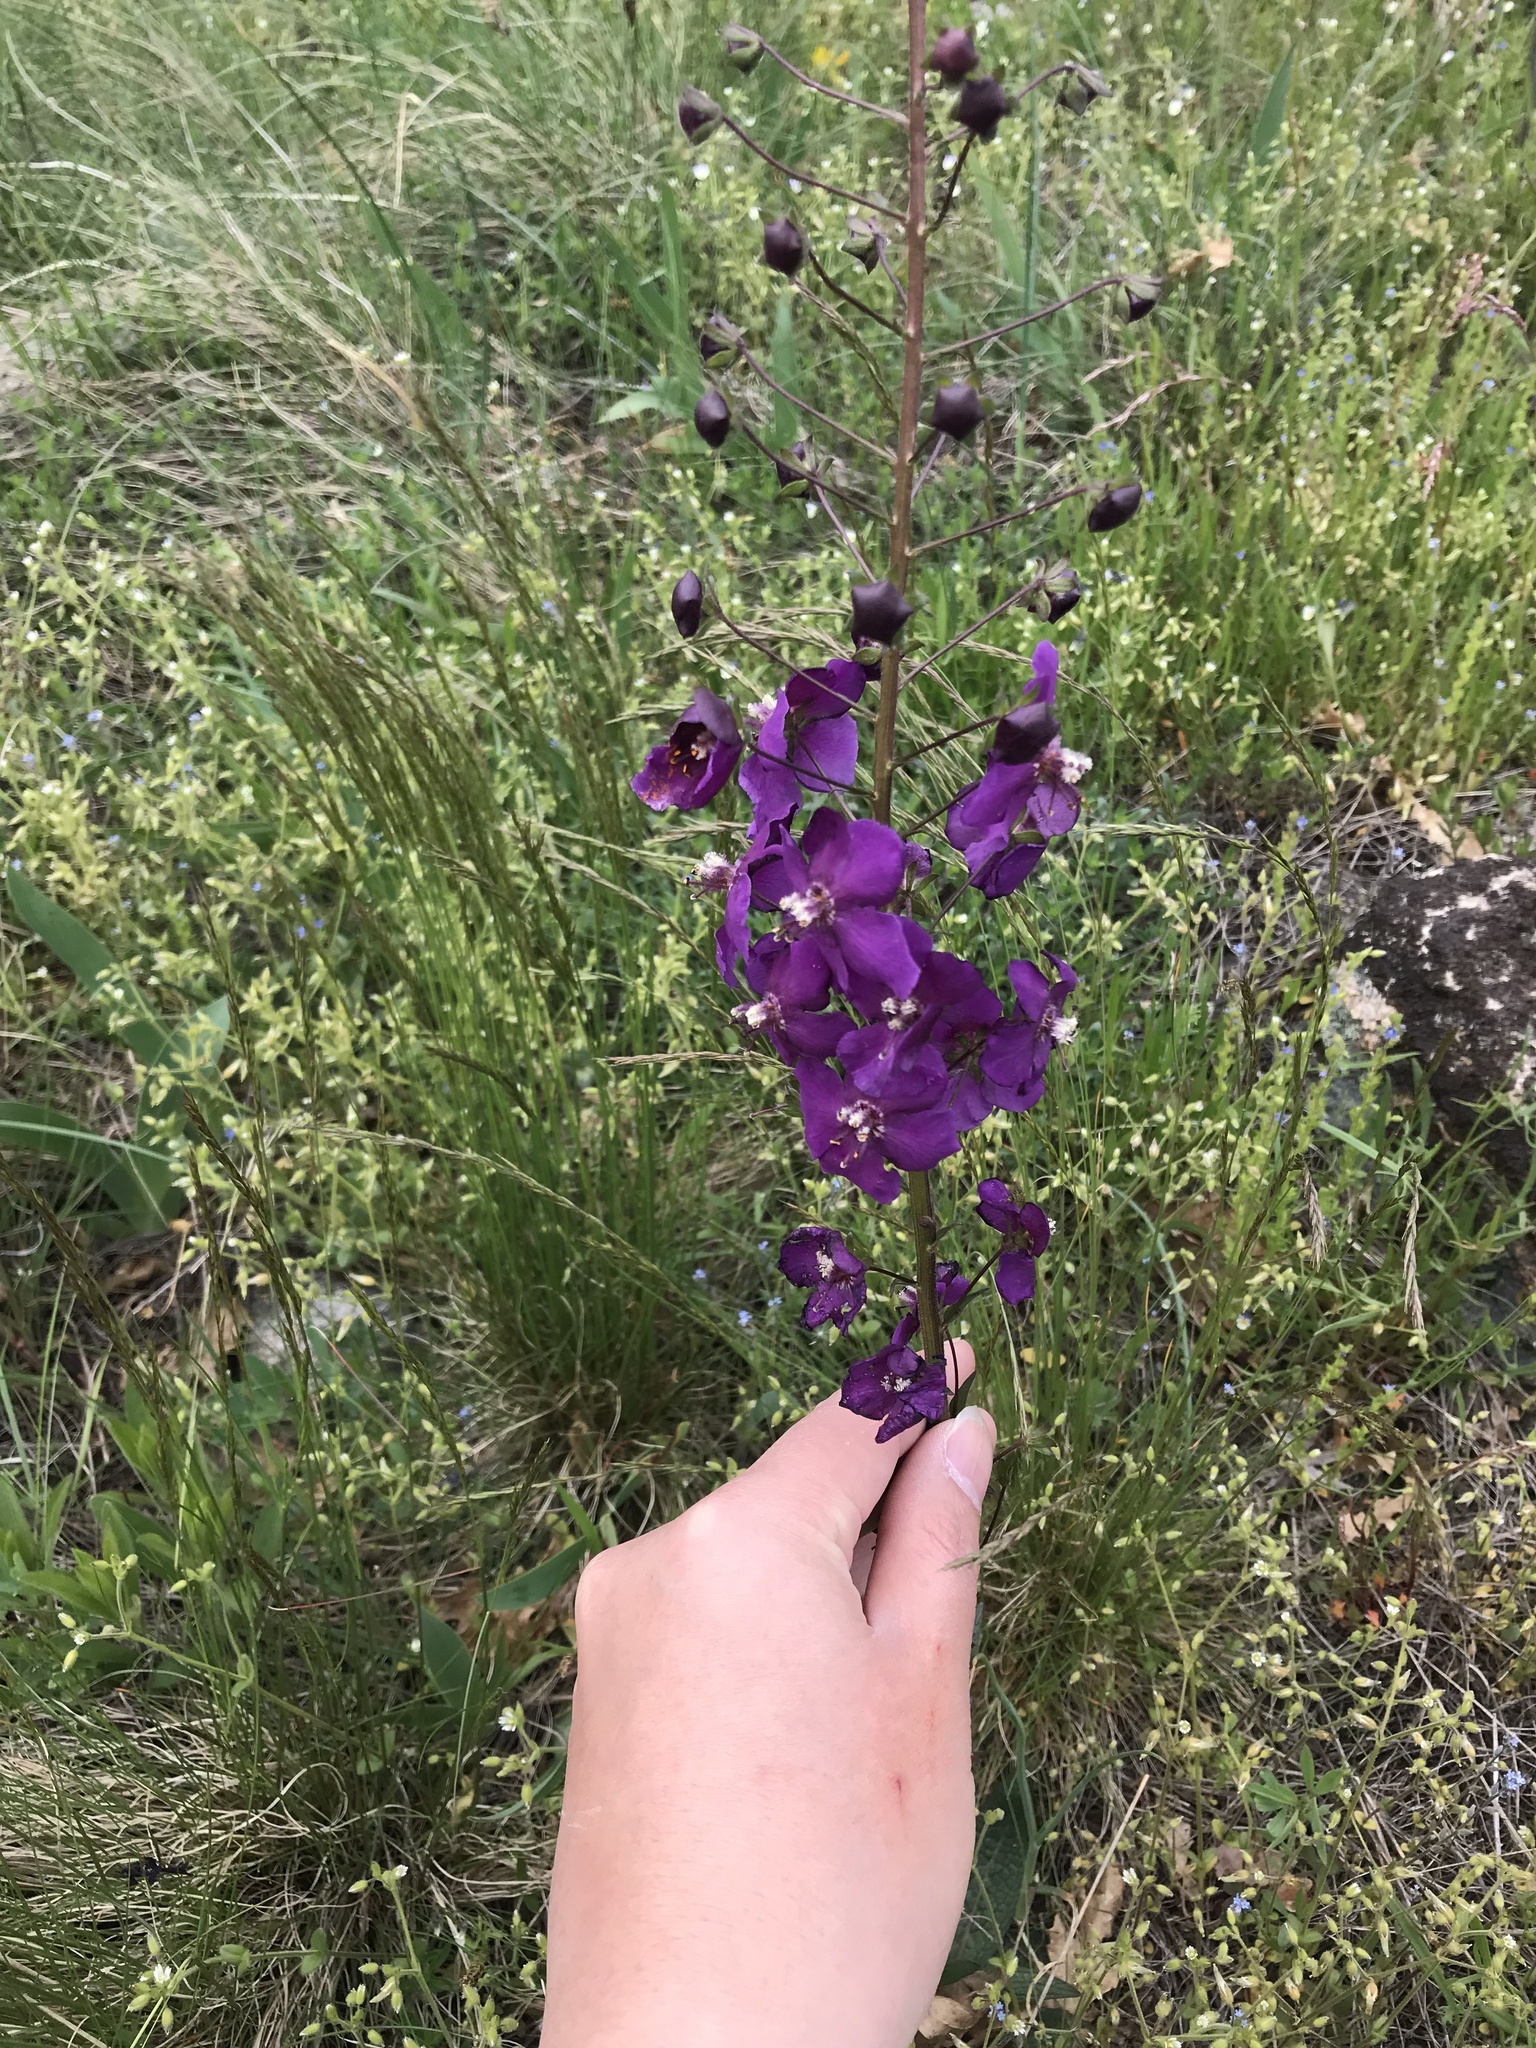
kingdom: Plantae
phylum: Tracheophyta
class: Magnoliopsida
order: Lamiales
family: Scrophulariaceae
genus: Verbascum
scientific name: Verbascum phoeniceum
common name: Purple mullein
